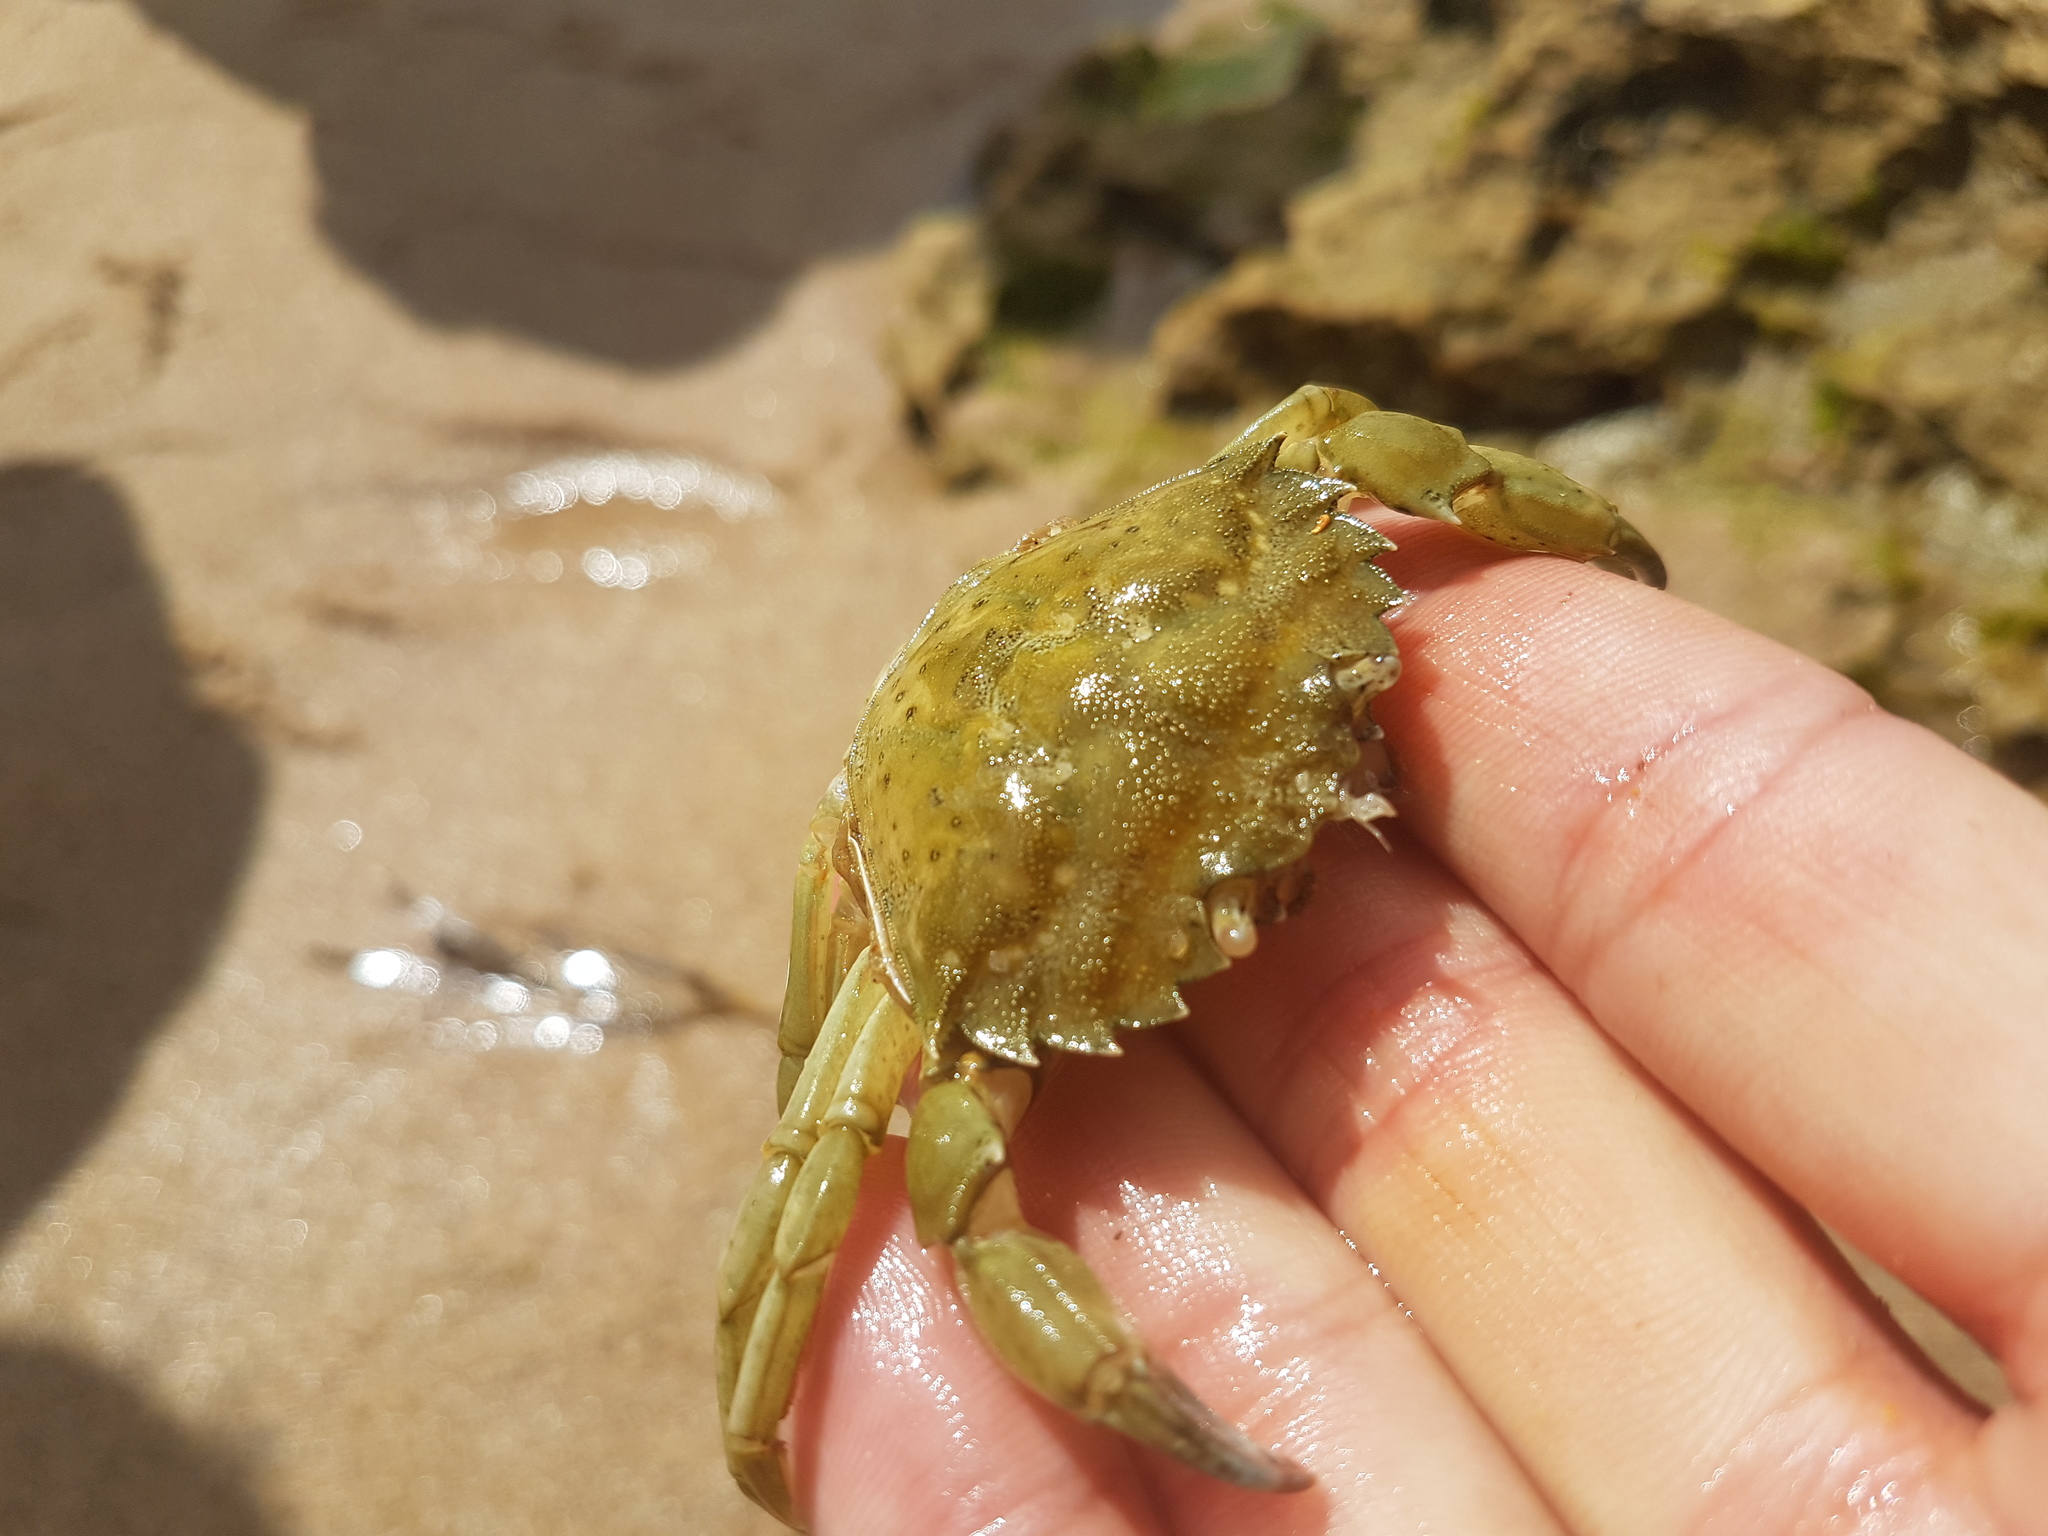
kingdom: Animalia
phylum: Arthropoda
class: Malacostraca
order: Decapoda
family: Carcinidae
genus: Carcinus
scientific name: Carcinus maenas
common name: European green crab
